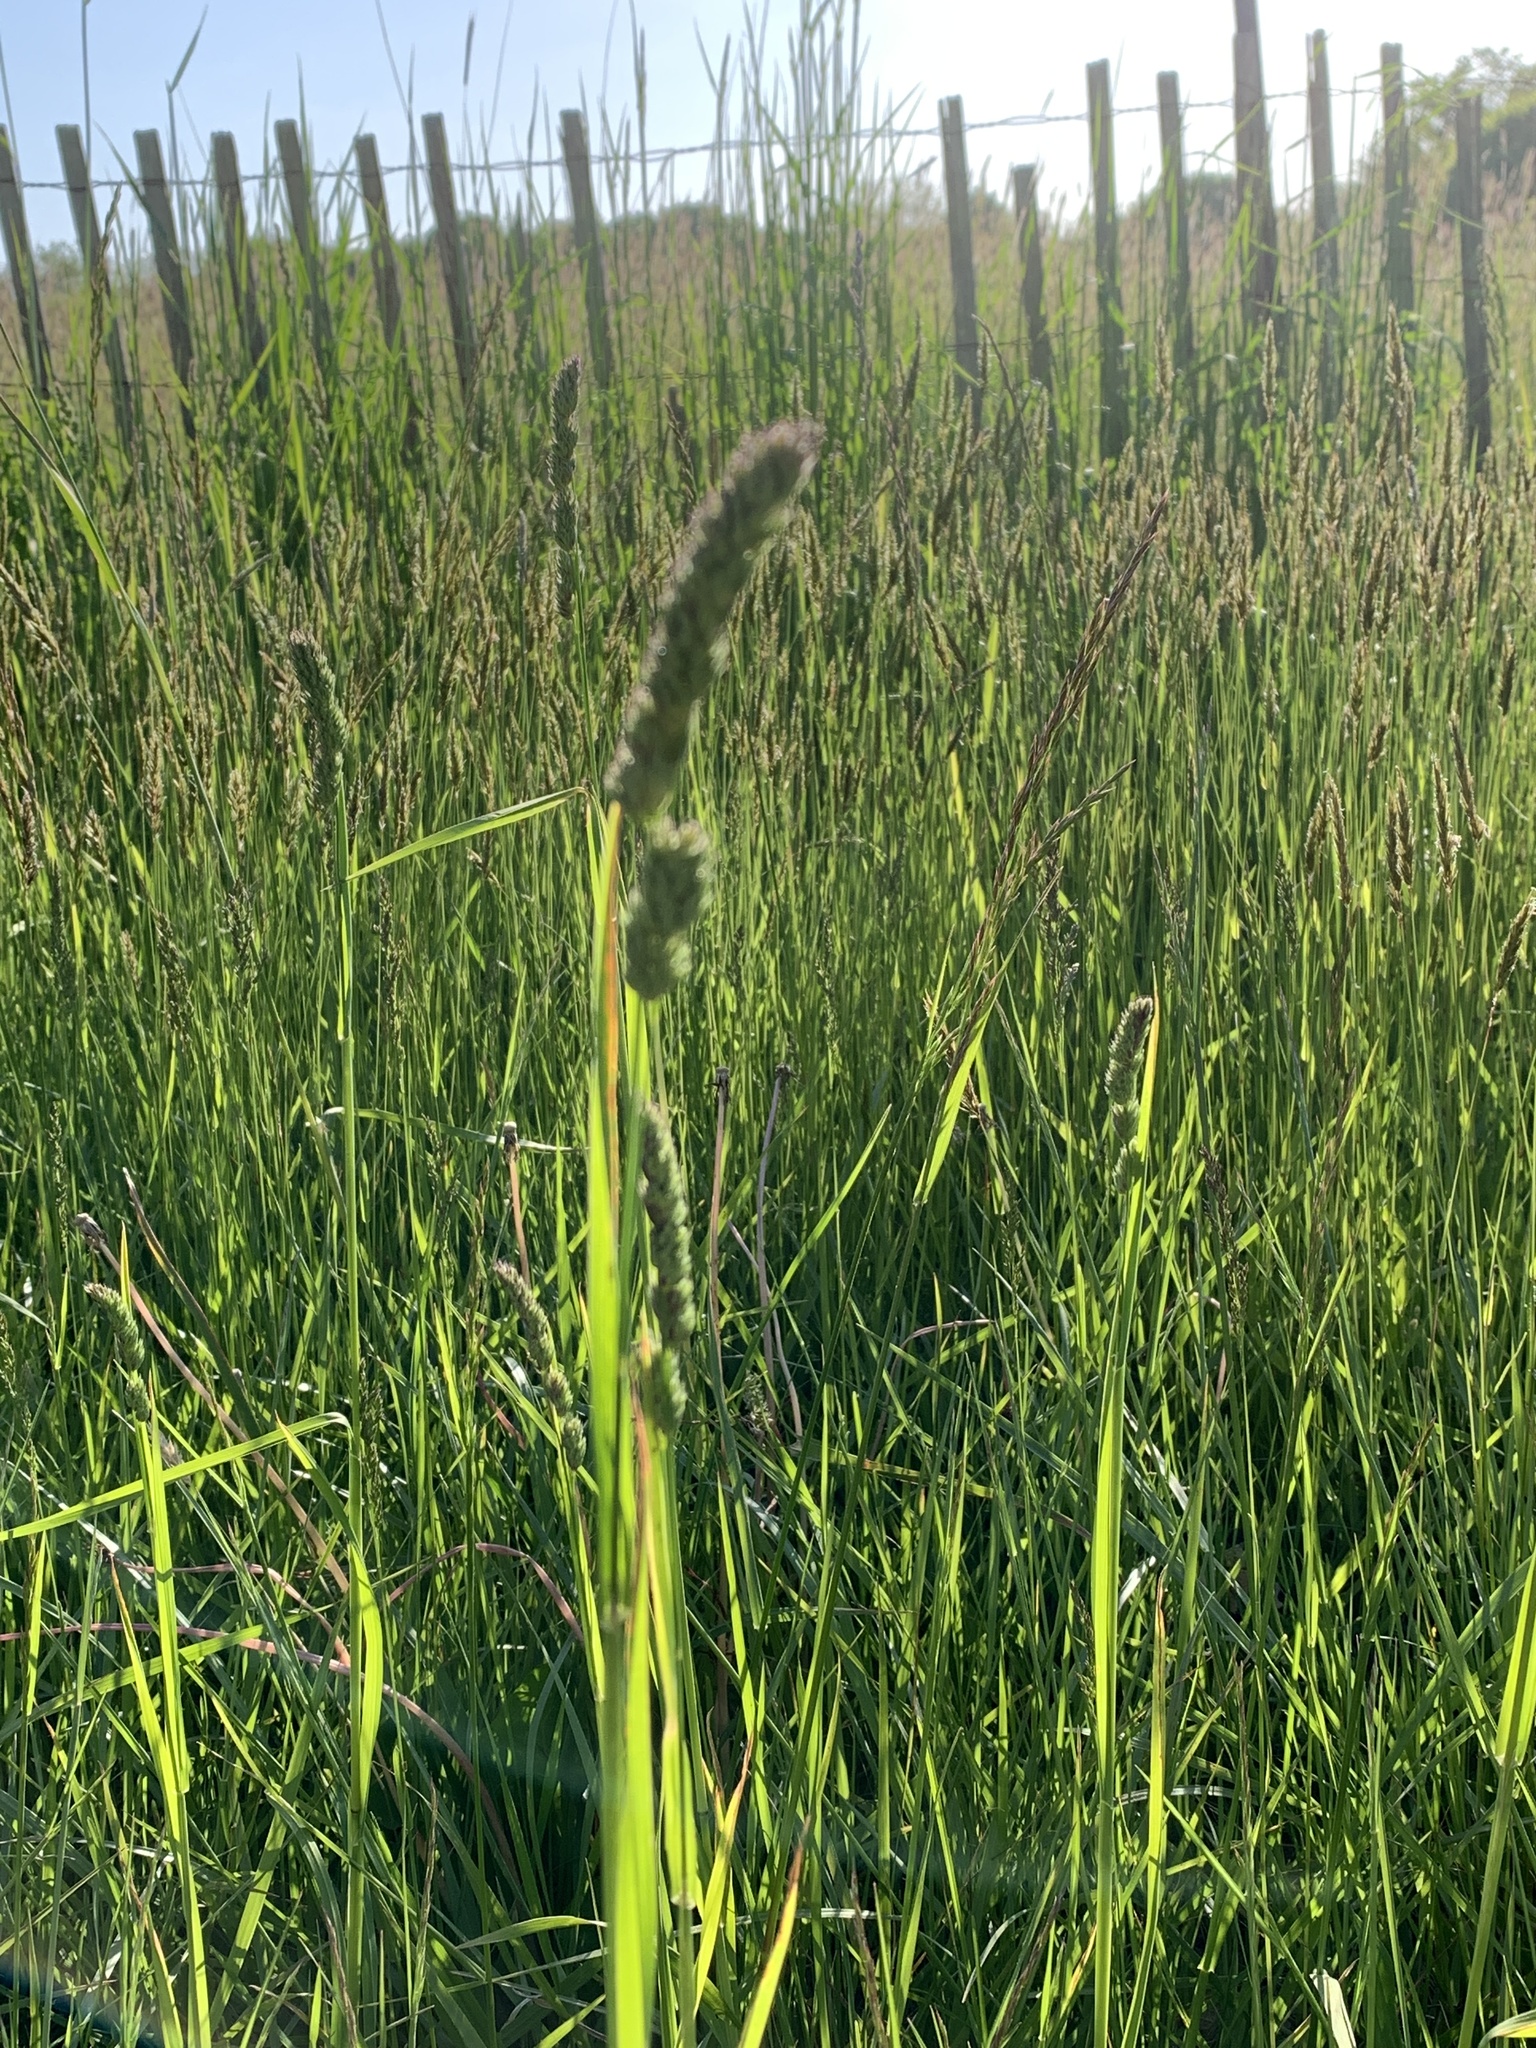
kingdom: Plantae
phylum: Tracheophyta
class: Liliopsida
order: Poales
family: Poaceae
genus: Anthoxanthum
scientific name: Anthoxanthum odoratum
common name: Sweet vernalgrass
